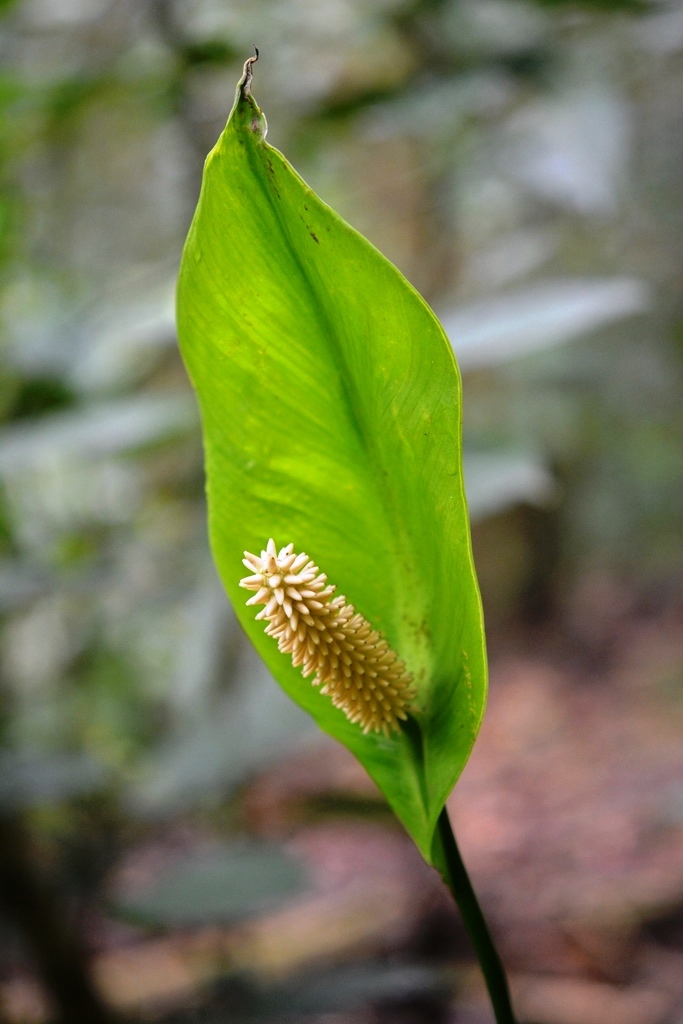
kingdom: Plantae
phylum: Tracheophyta
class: Liliopsida
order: Alismatales
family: Araceae
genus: Spathiphyllum
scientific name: Spathiphyllum cochlearispathum
